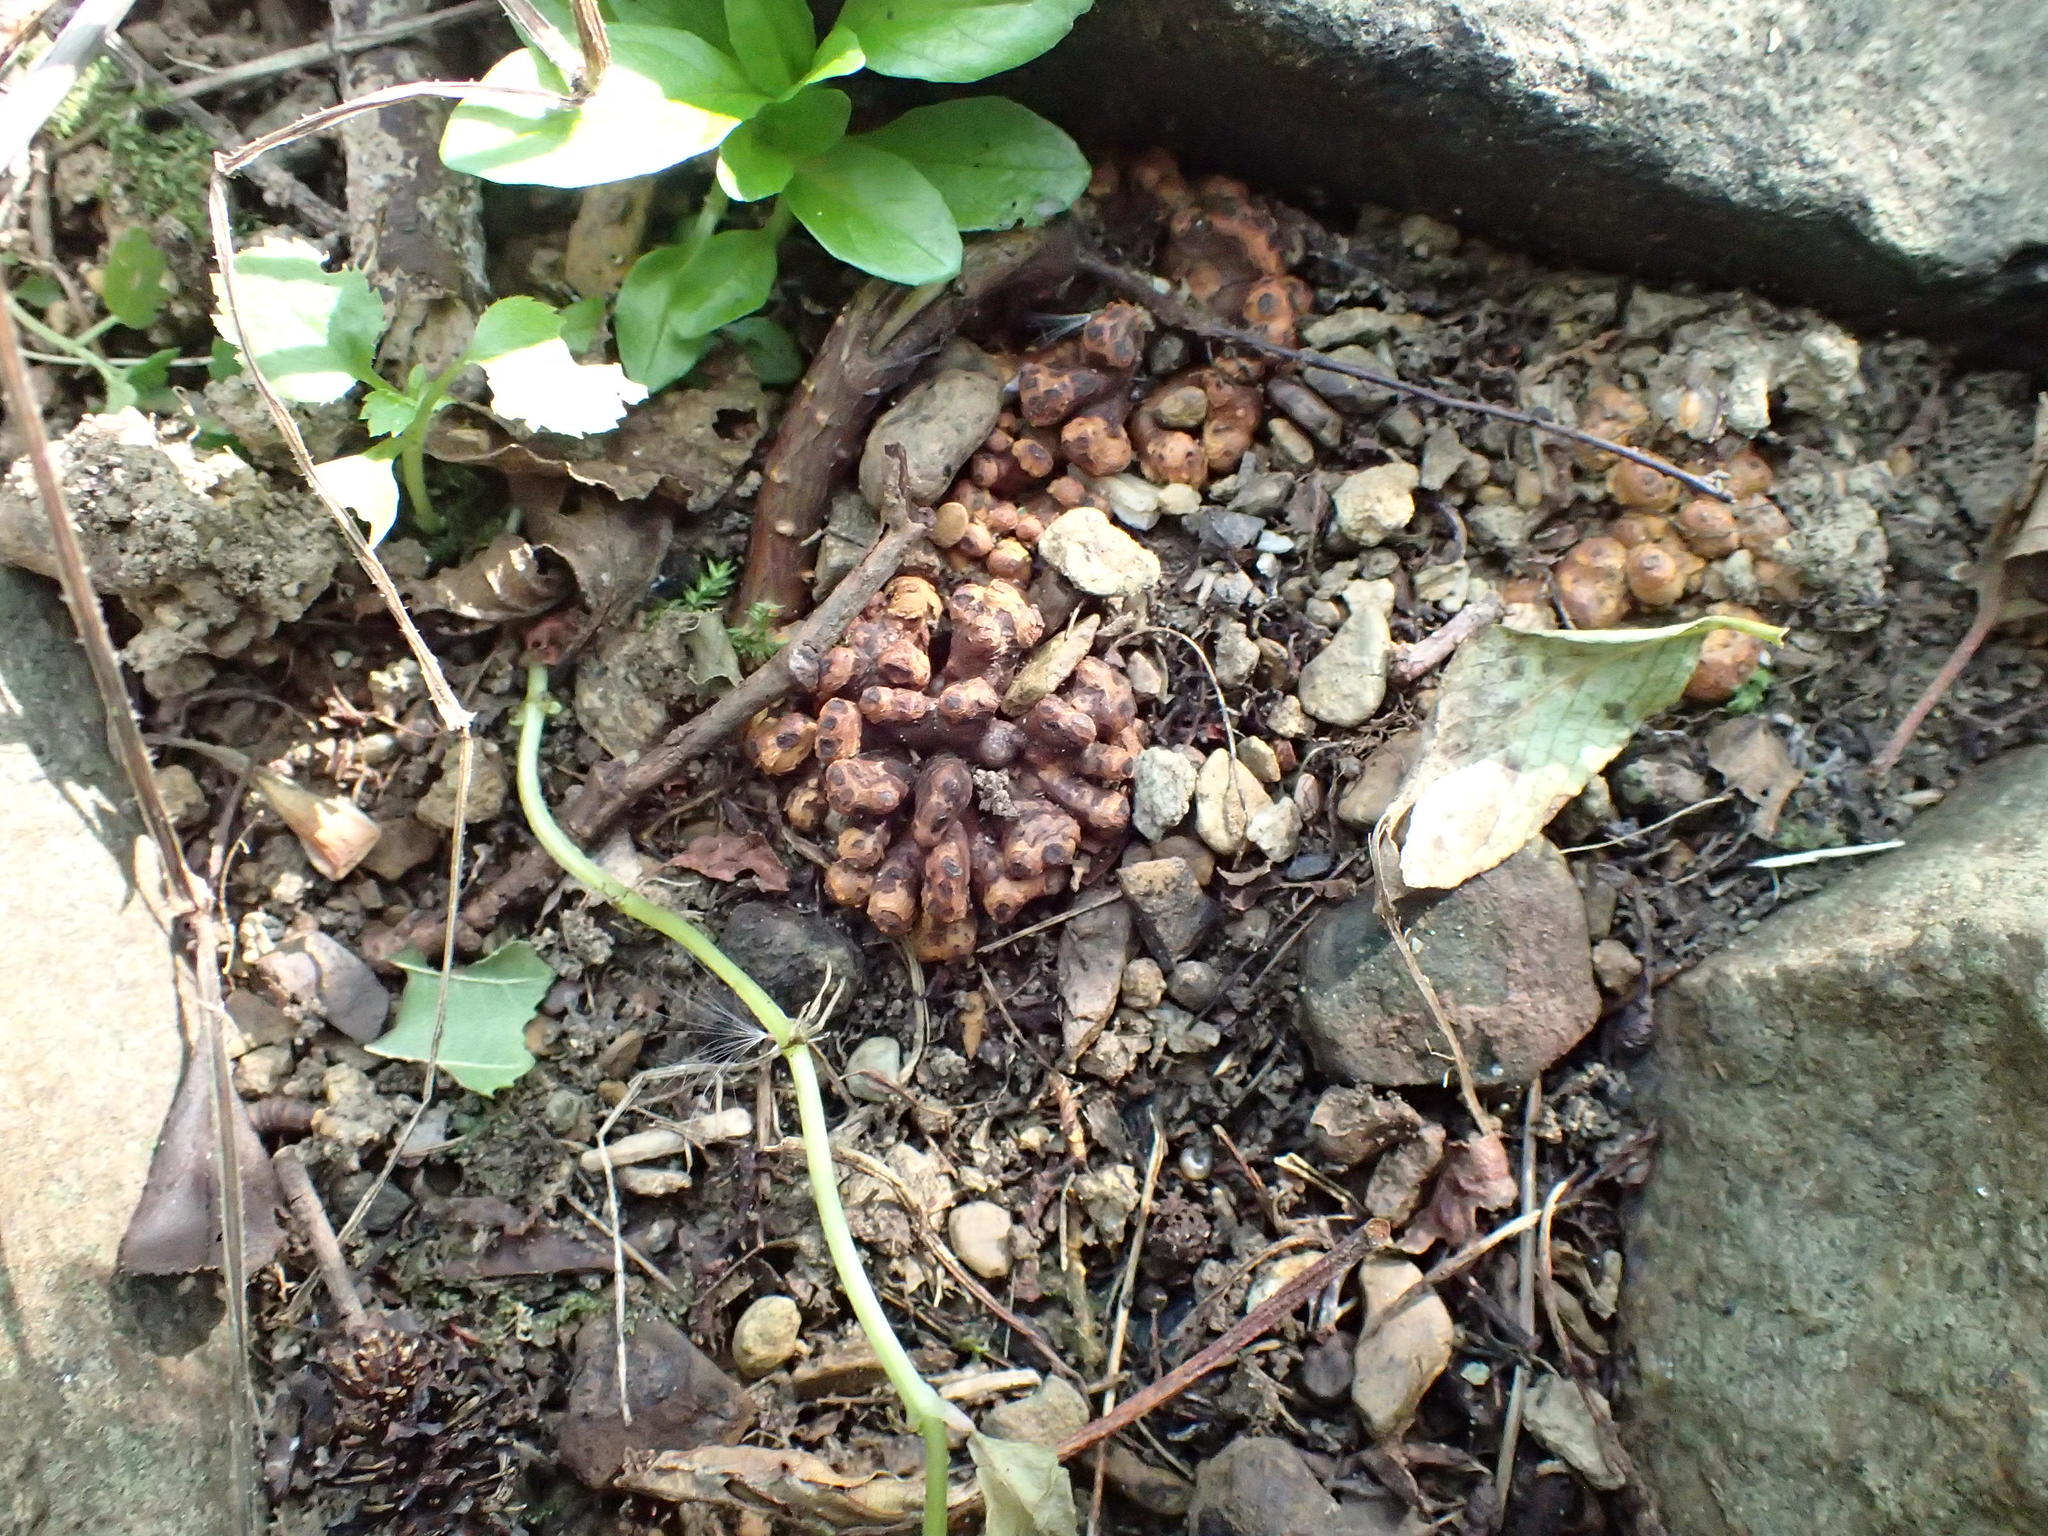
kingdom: Bacteria
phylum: Actinobacteriota
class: Actinomycetia
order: Mycobacteriales
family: Frankiaceae
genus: Frankia
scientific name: Frankia alni
